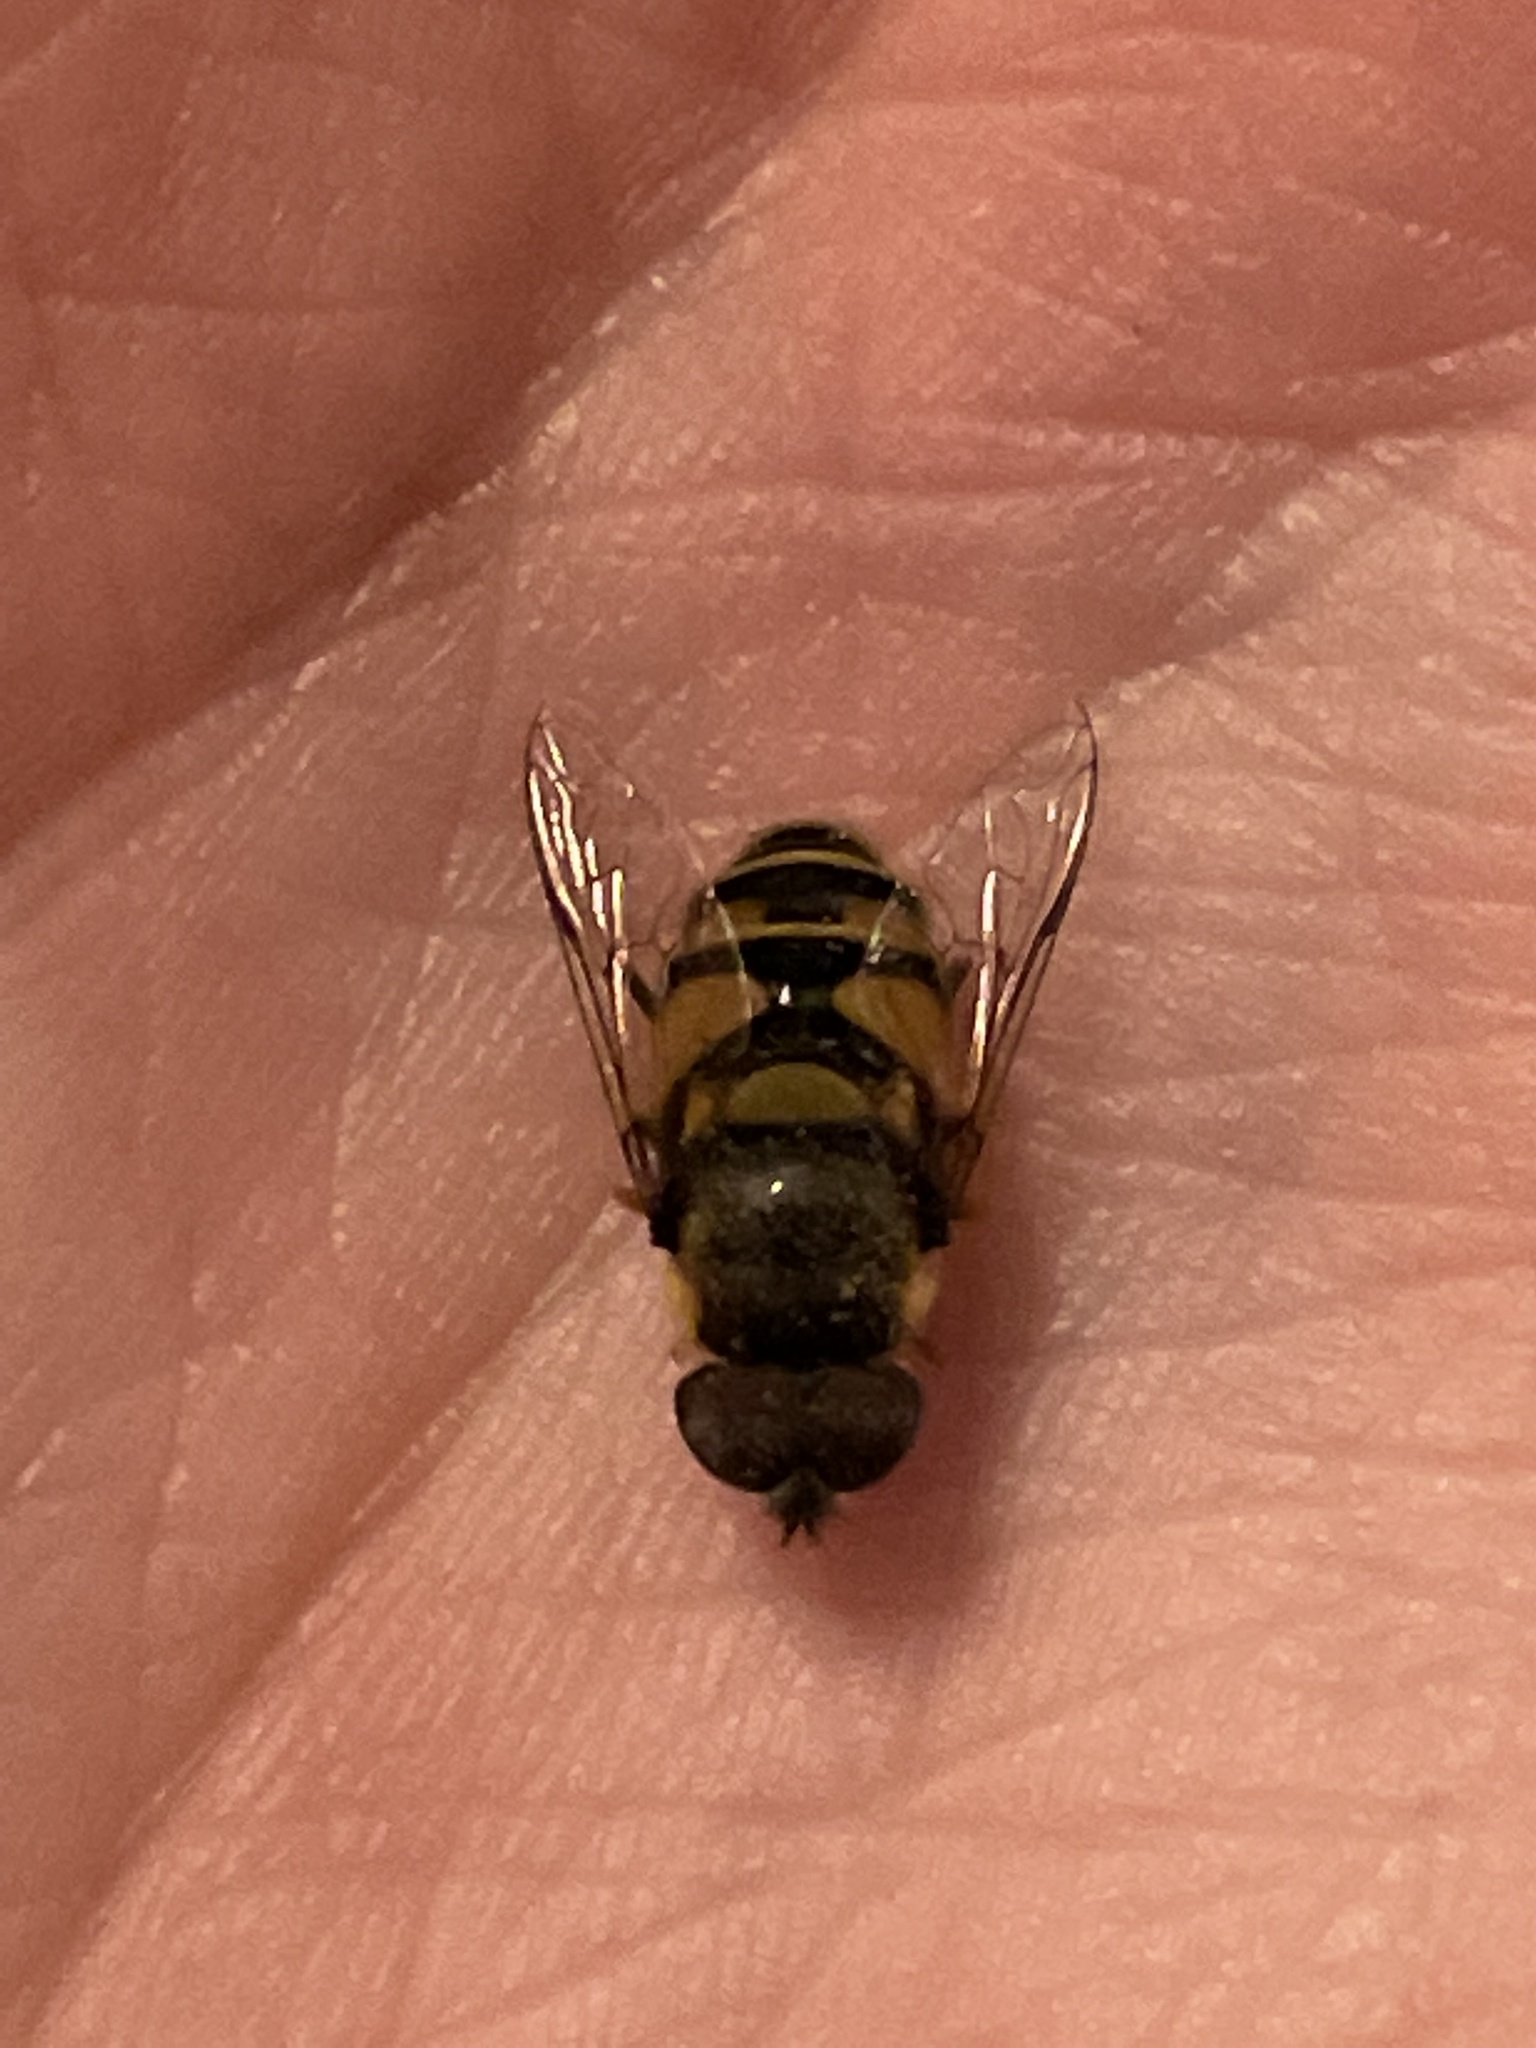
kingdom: Animalia
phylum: Arthropoda
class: Insecta
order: Diptera
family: Syrphidae
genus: Eristalis
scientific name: Eristalis transversa
